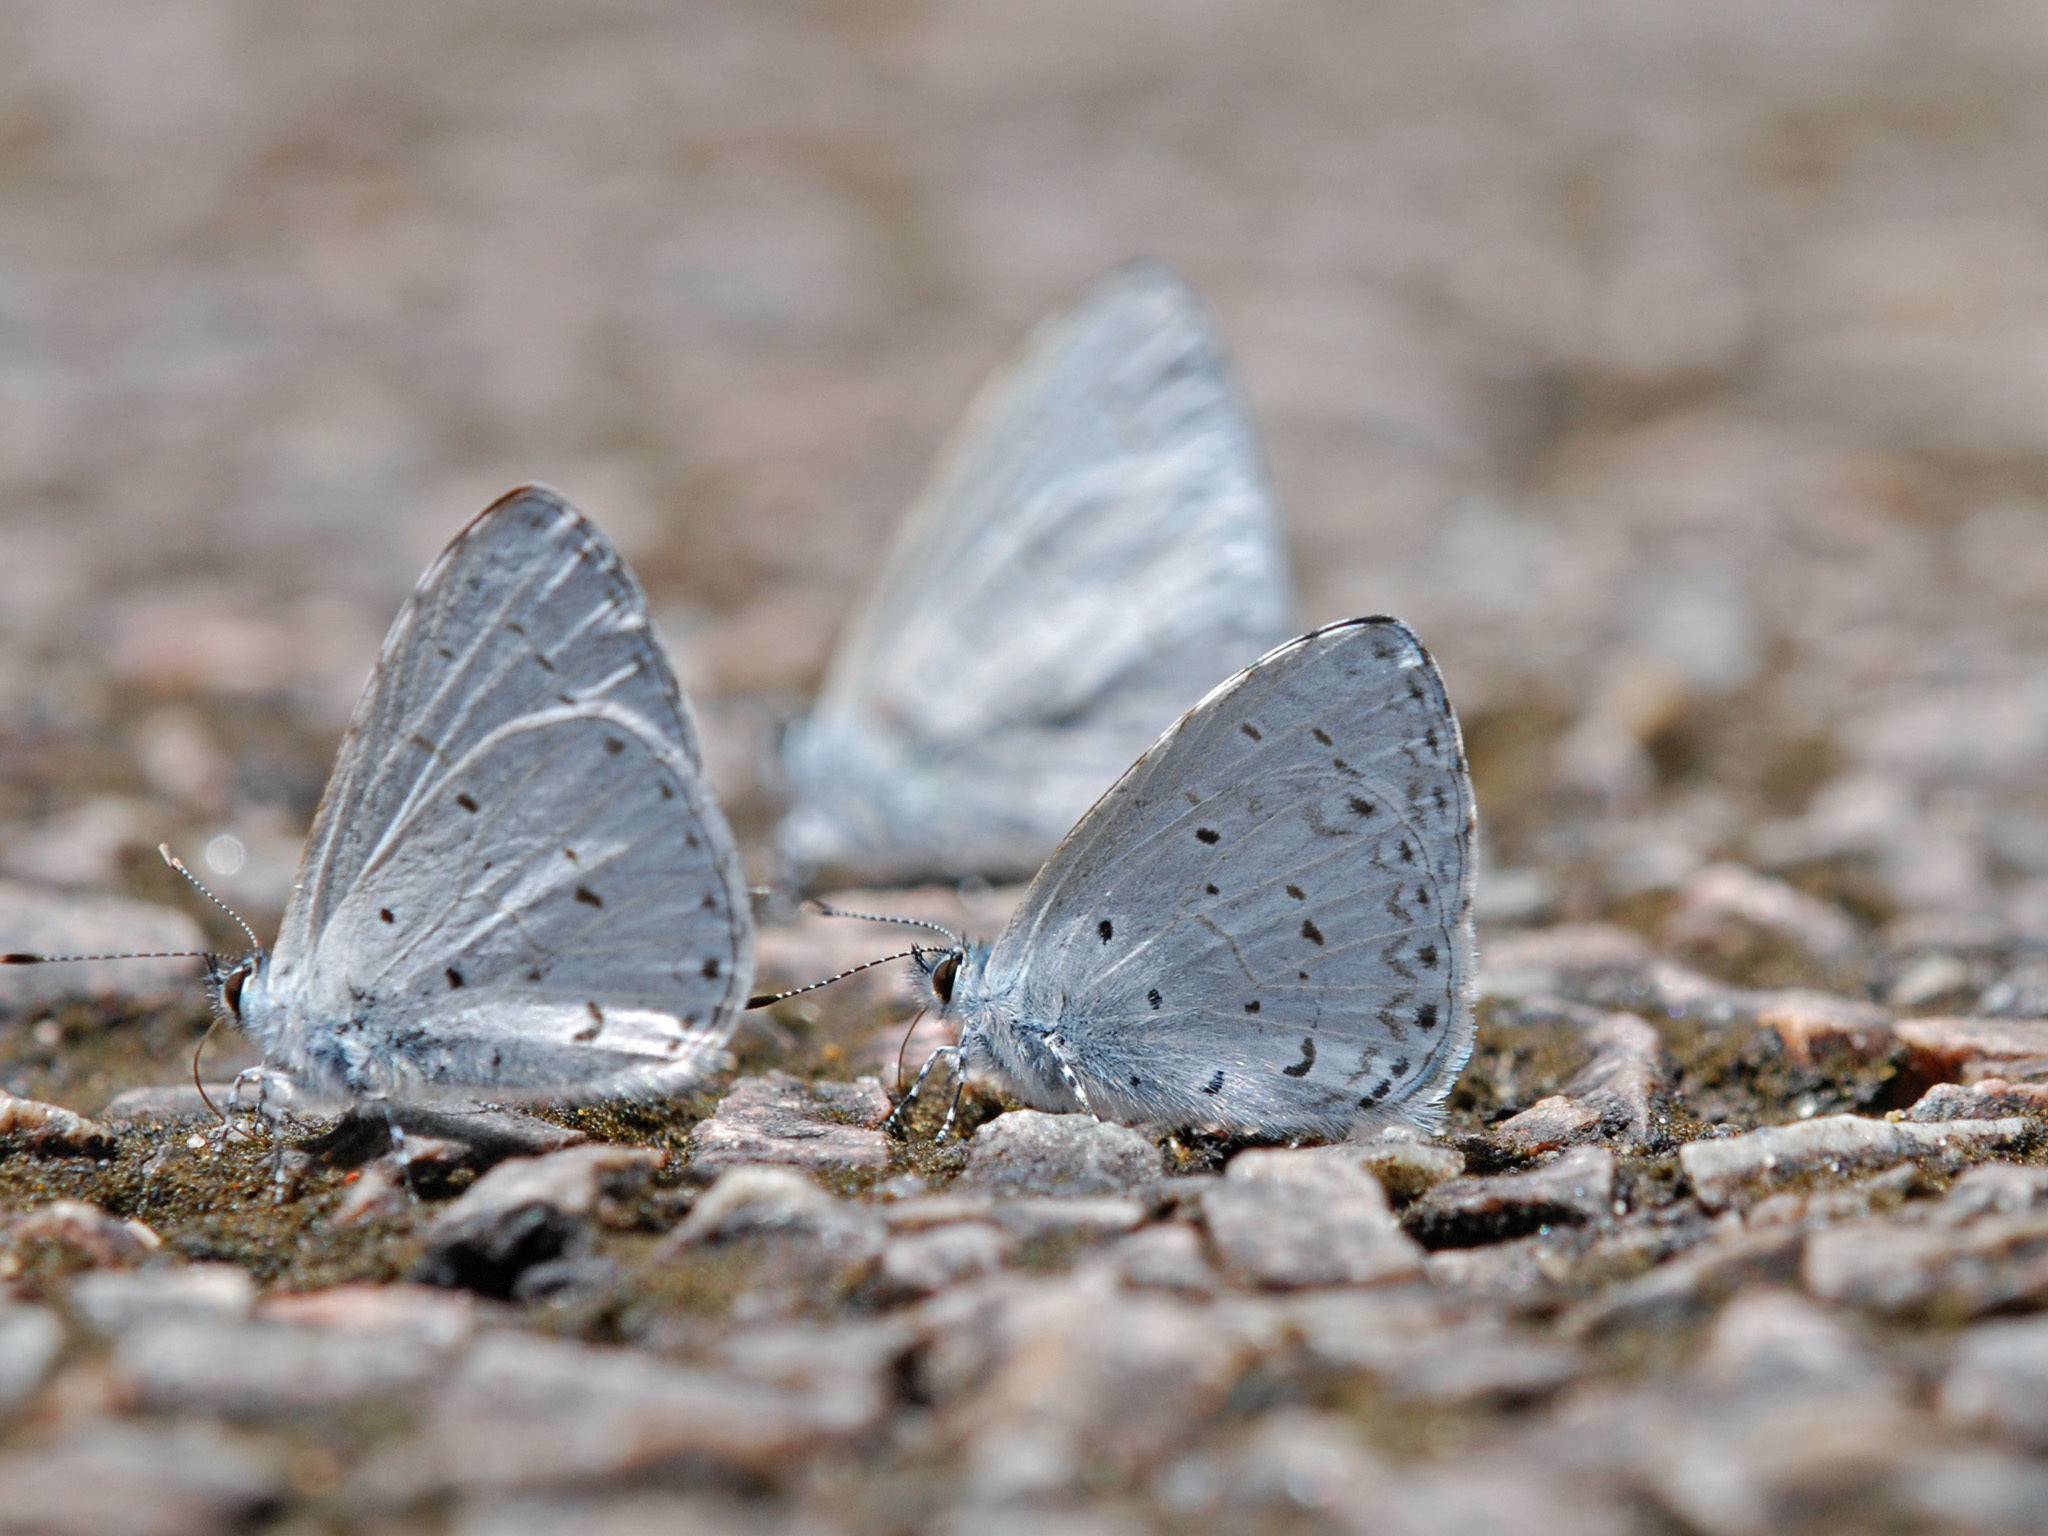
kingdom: Animalia
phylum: Arthropoda
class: Insecta
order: Lepidoptera
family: Lycaenidae
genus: Udara
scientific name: Udara dilectus
